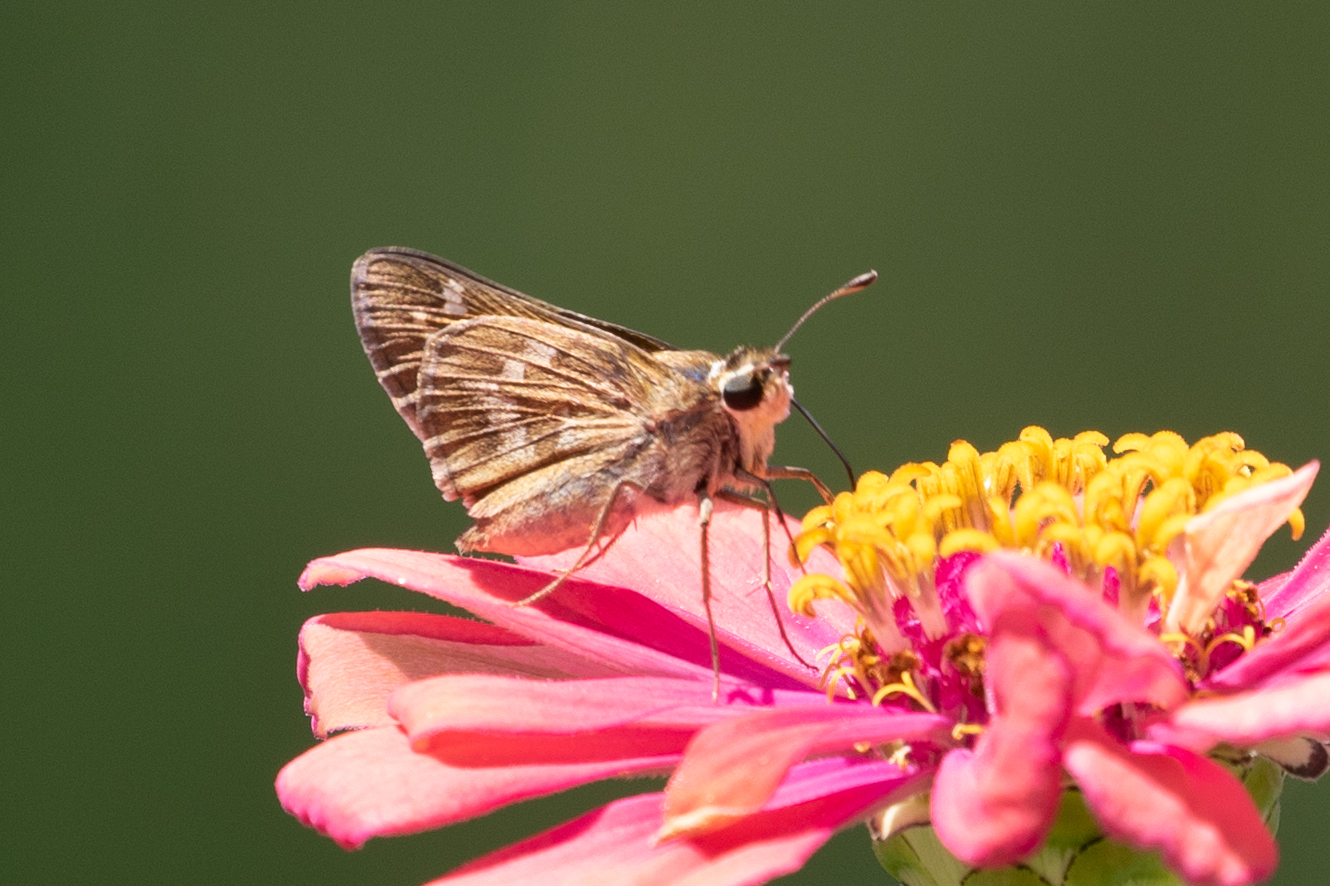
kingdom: Animalia
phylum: Arthropoda
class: Insecta
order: Lepidoptera
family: Hesperiidae
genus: Atalopedes
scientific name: Atalopedes
